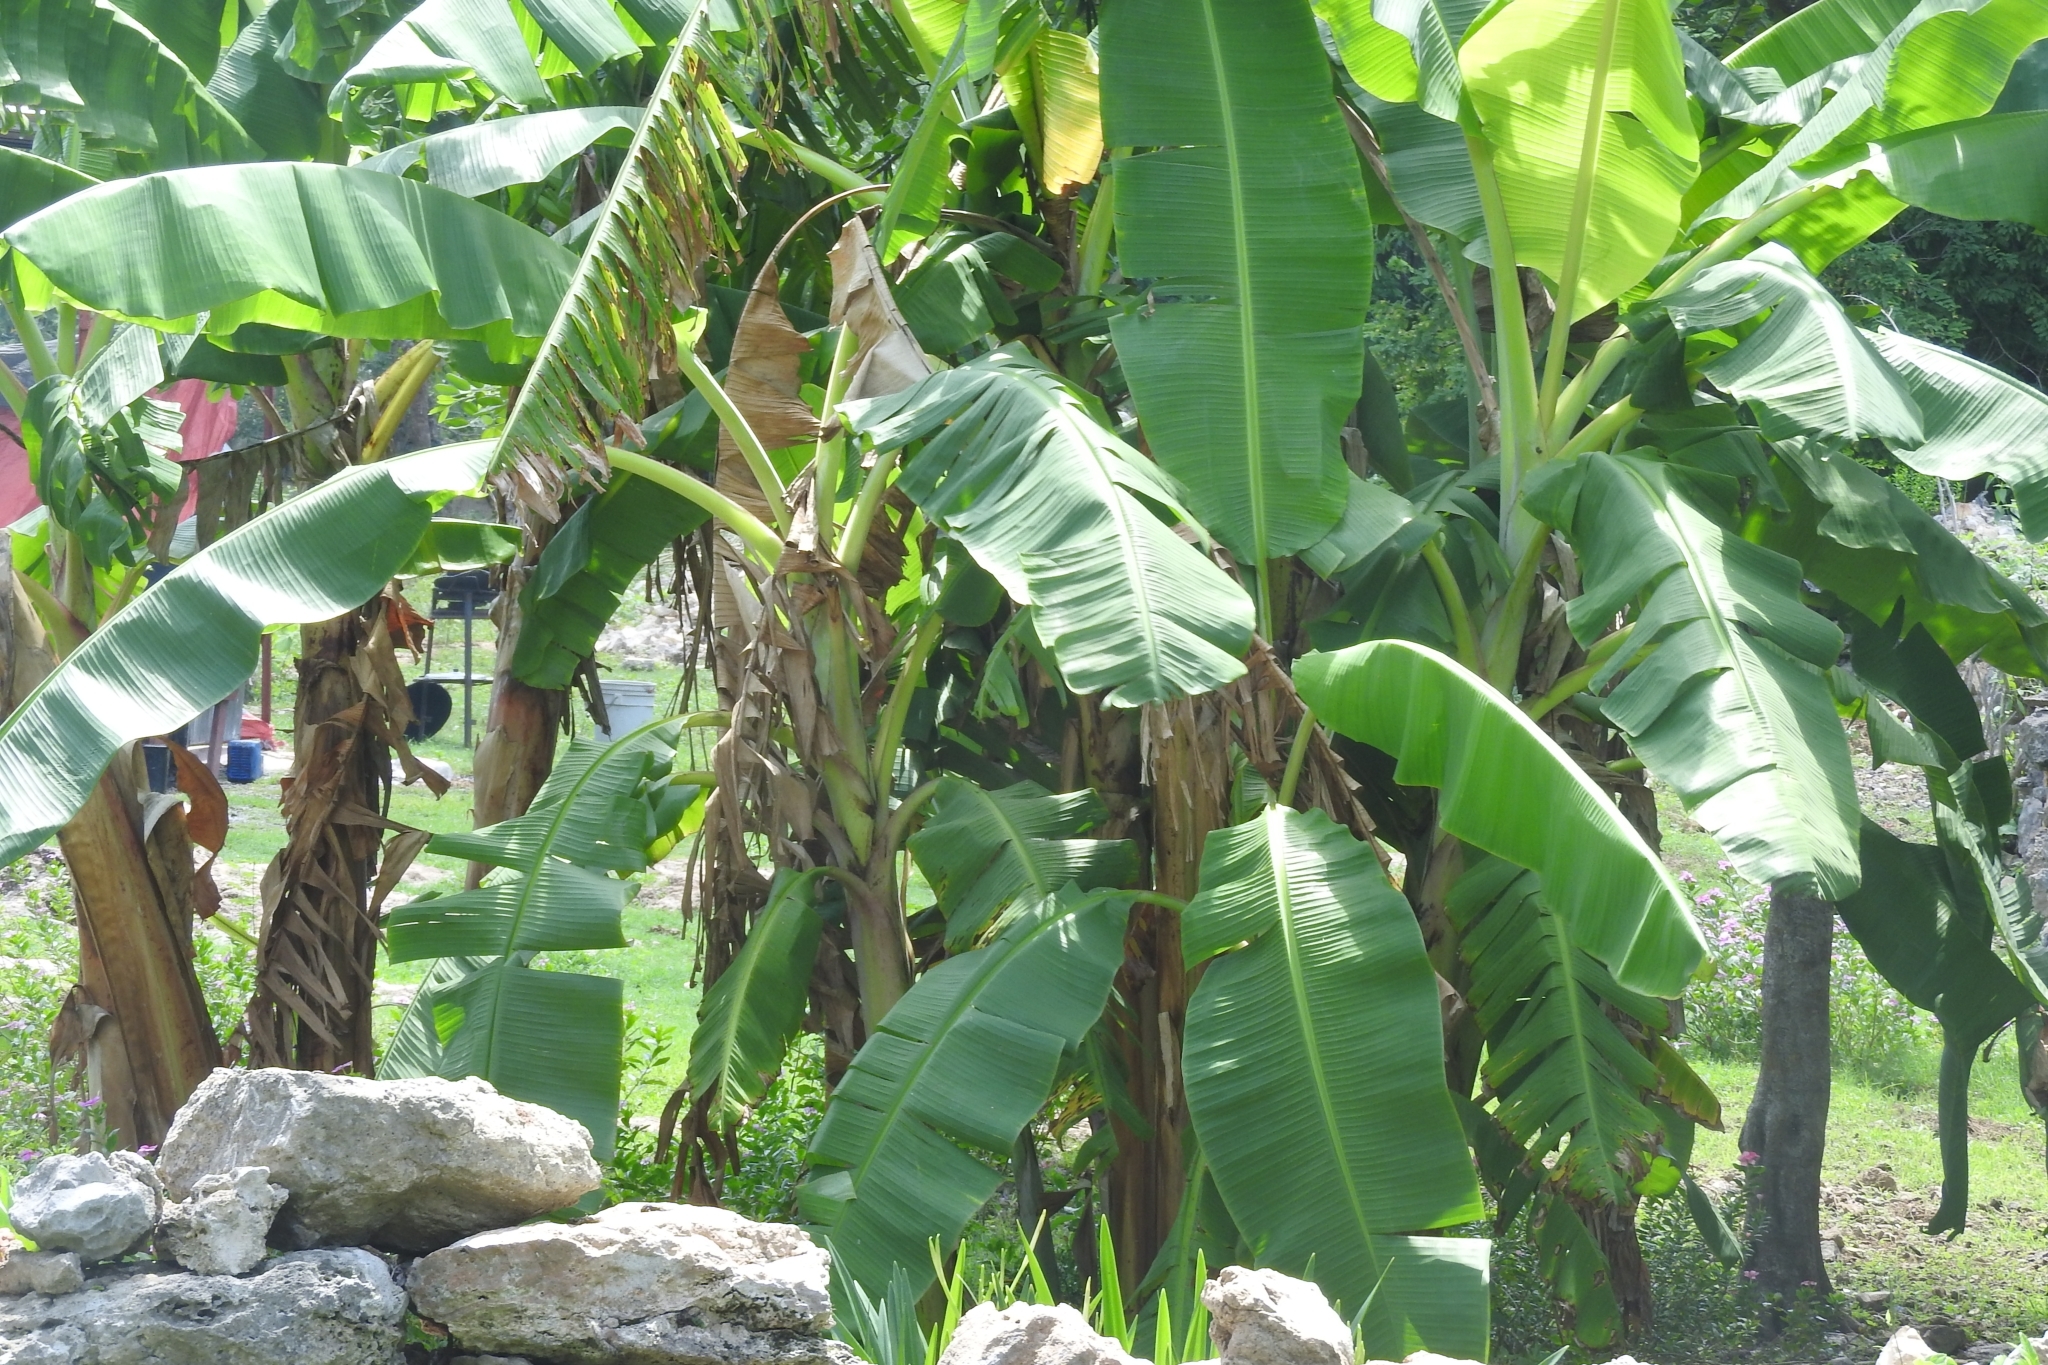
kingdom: Plantae
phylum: Tracheophyta
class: Liliopsida
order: Zingiberales
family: Musaceae
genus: Musa
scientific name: Musa paradisiaca
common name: French plantain
